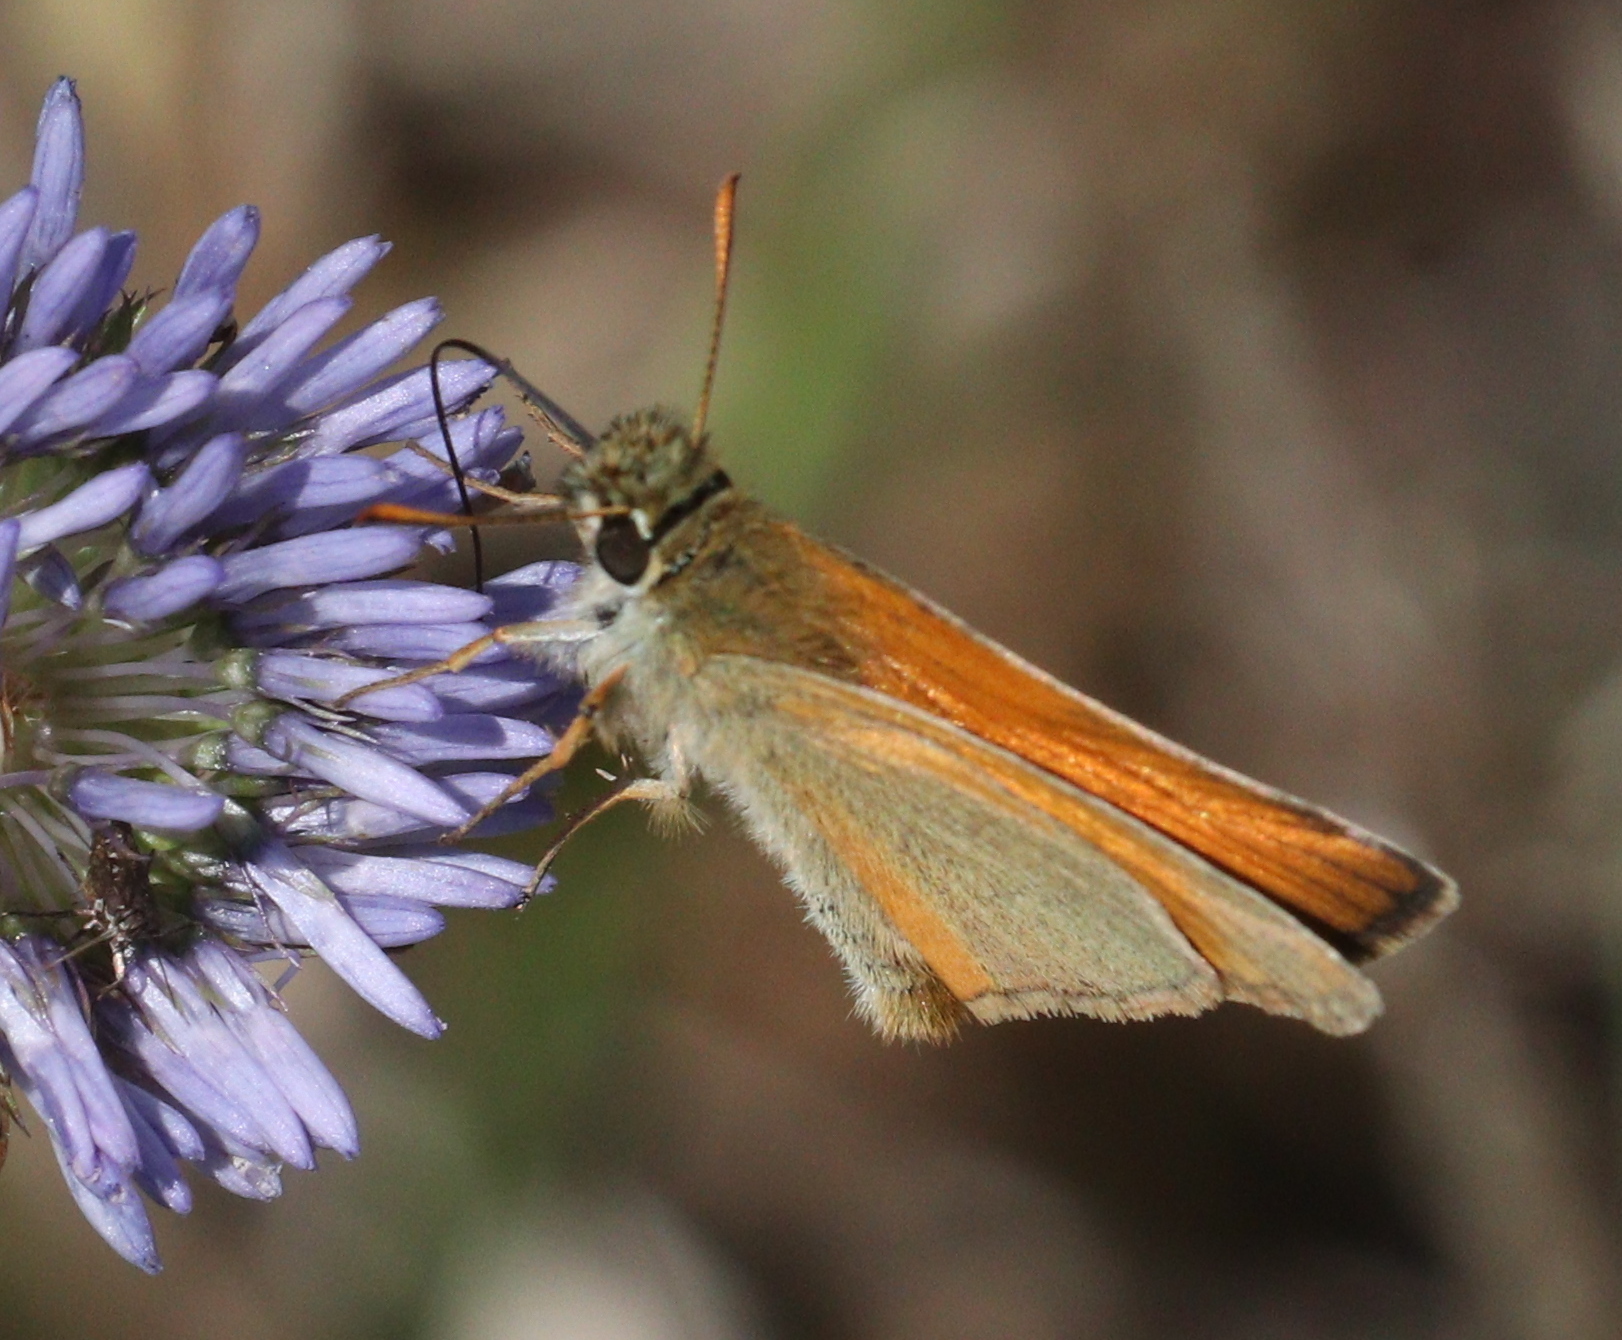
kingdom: Animalia
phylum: Arthropoda
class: Insecta
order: Lepidoptera
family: Hesperiidae
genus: Thymelicus
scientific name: Thymelicus sylvestris
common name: Small skipper
